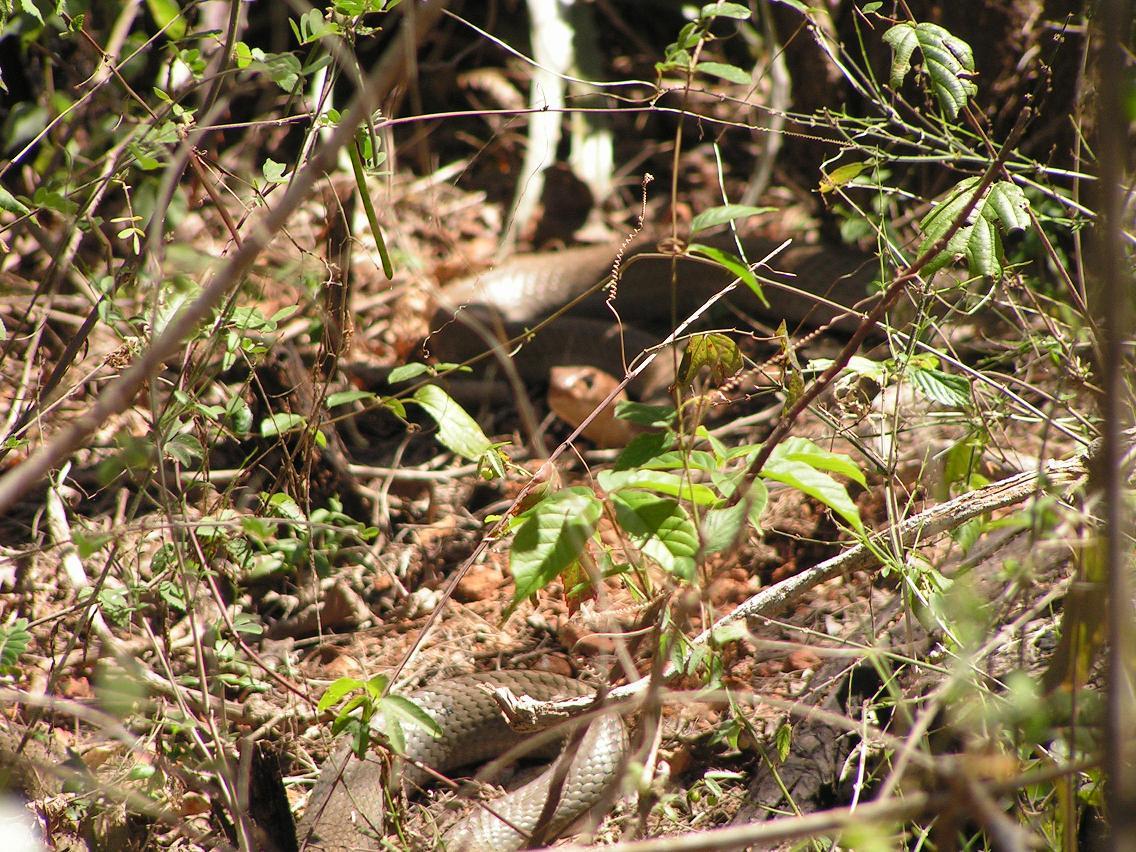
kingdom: Animalia
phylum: Chordata
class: Squamata
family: Colubridae
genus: Masticophis
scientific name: Masticophis mentovarius
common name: Neotropical whip snake
